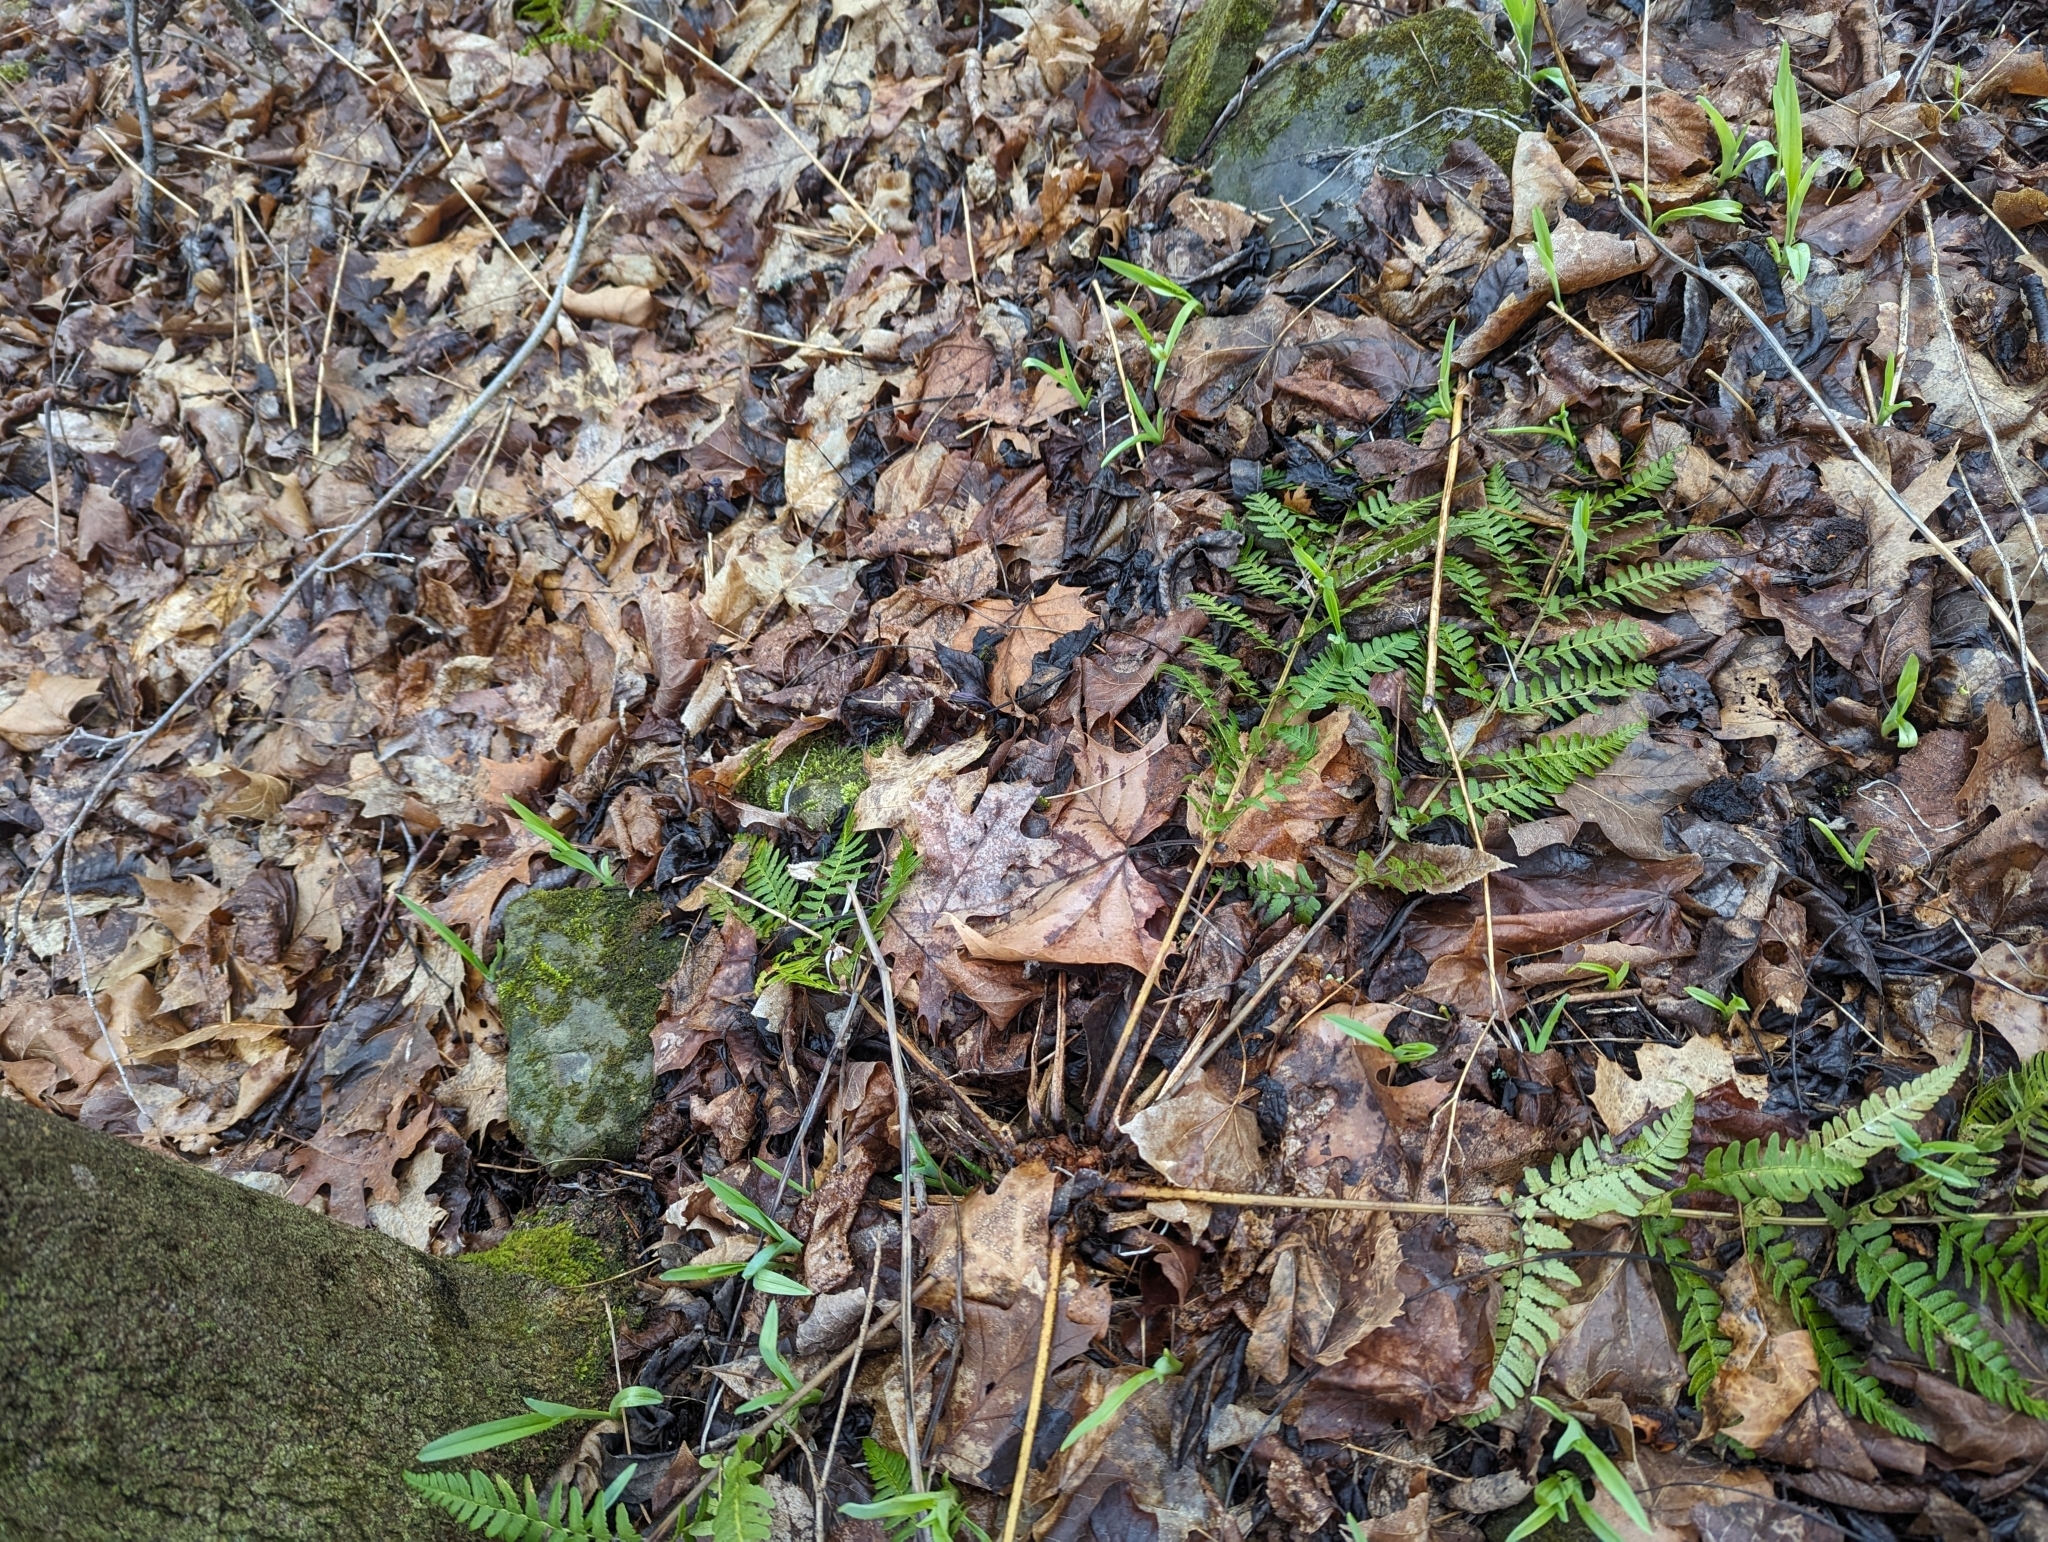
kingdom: Plantae
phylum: Tracheophyta
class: Polypodiopsida
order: Polypodiales
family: Dryopteridaceae
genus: Dryopteris
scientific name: Dryopteris marginalis
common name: Marginal wood fern
